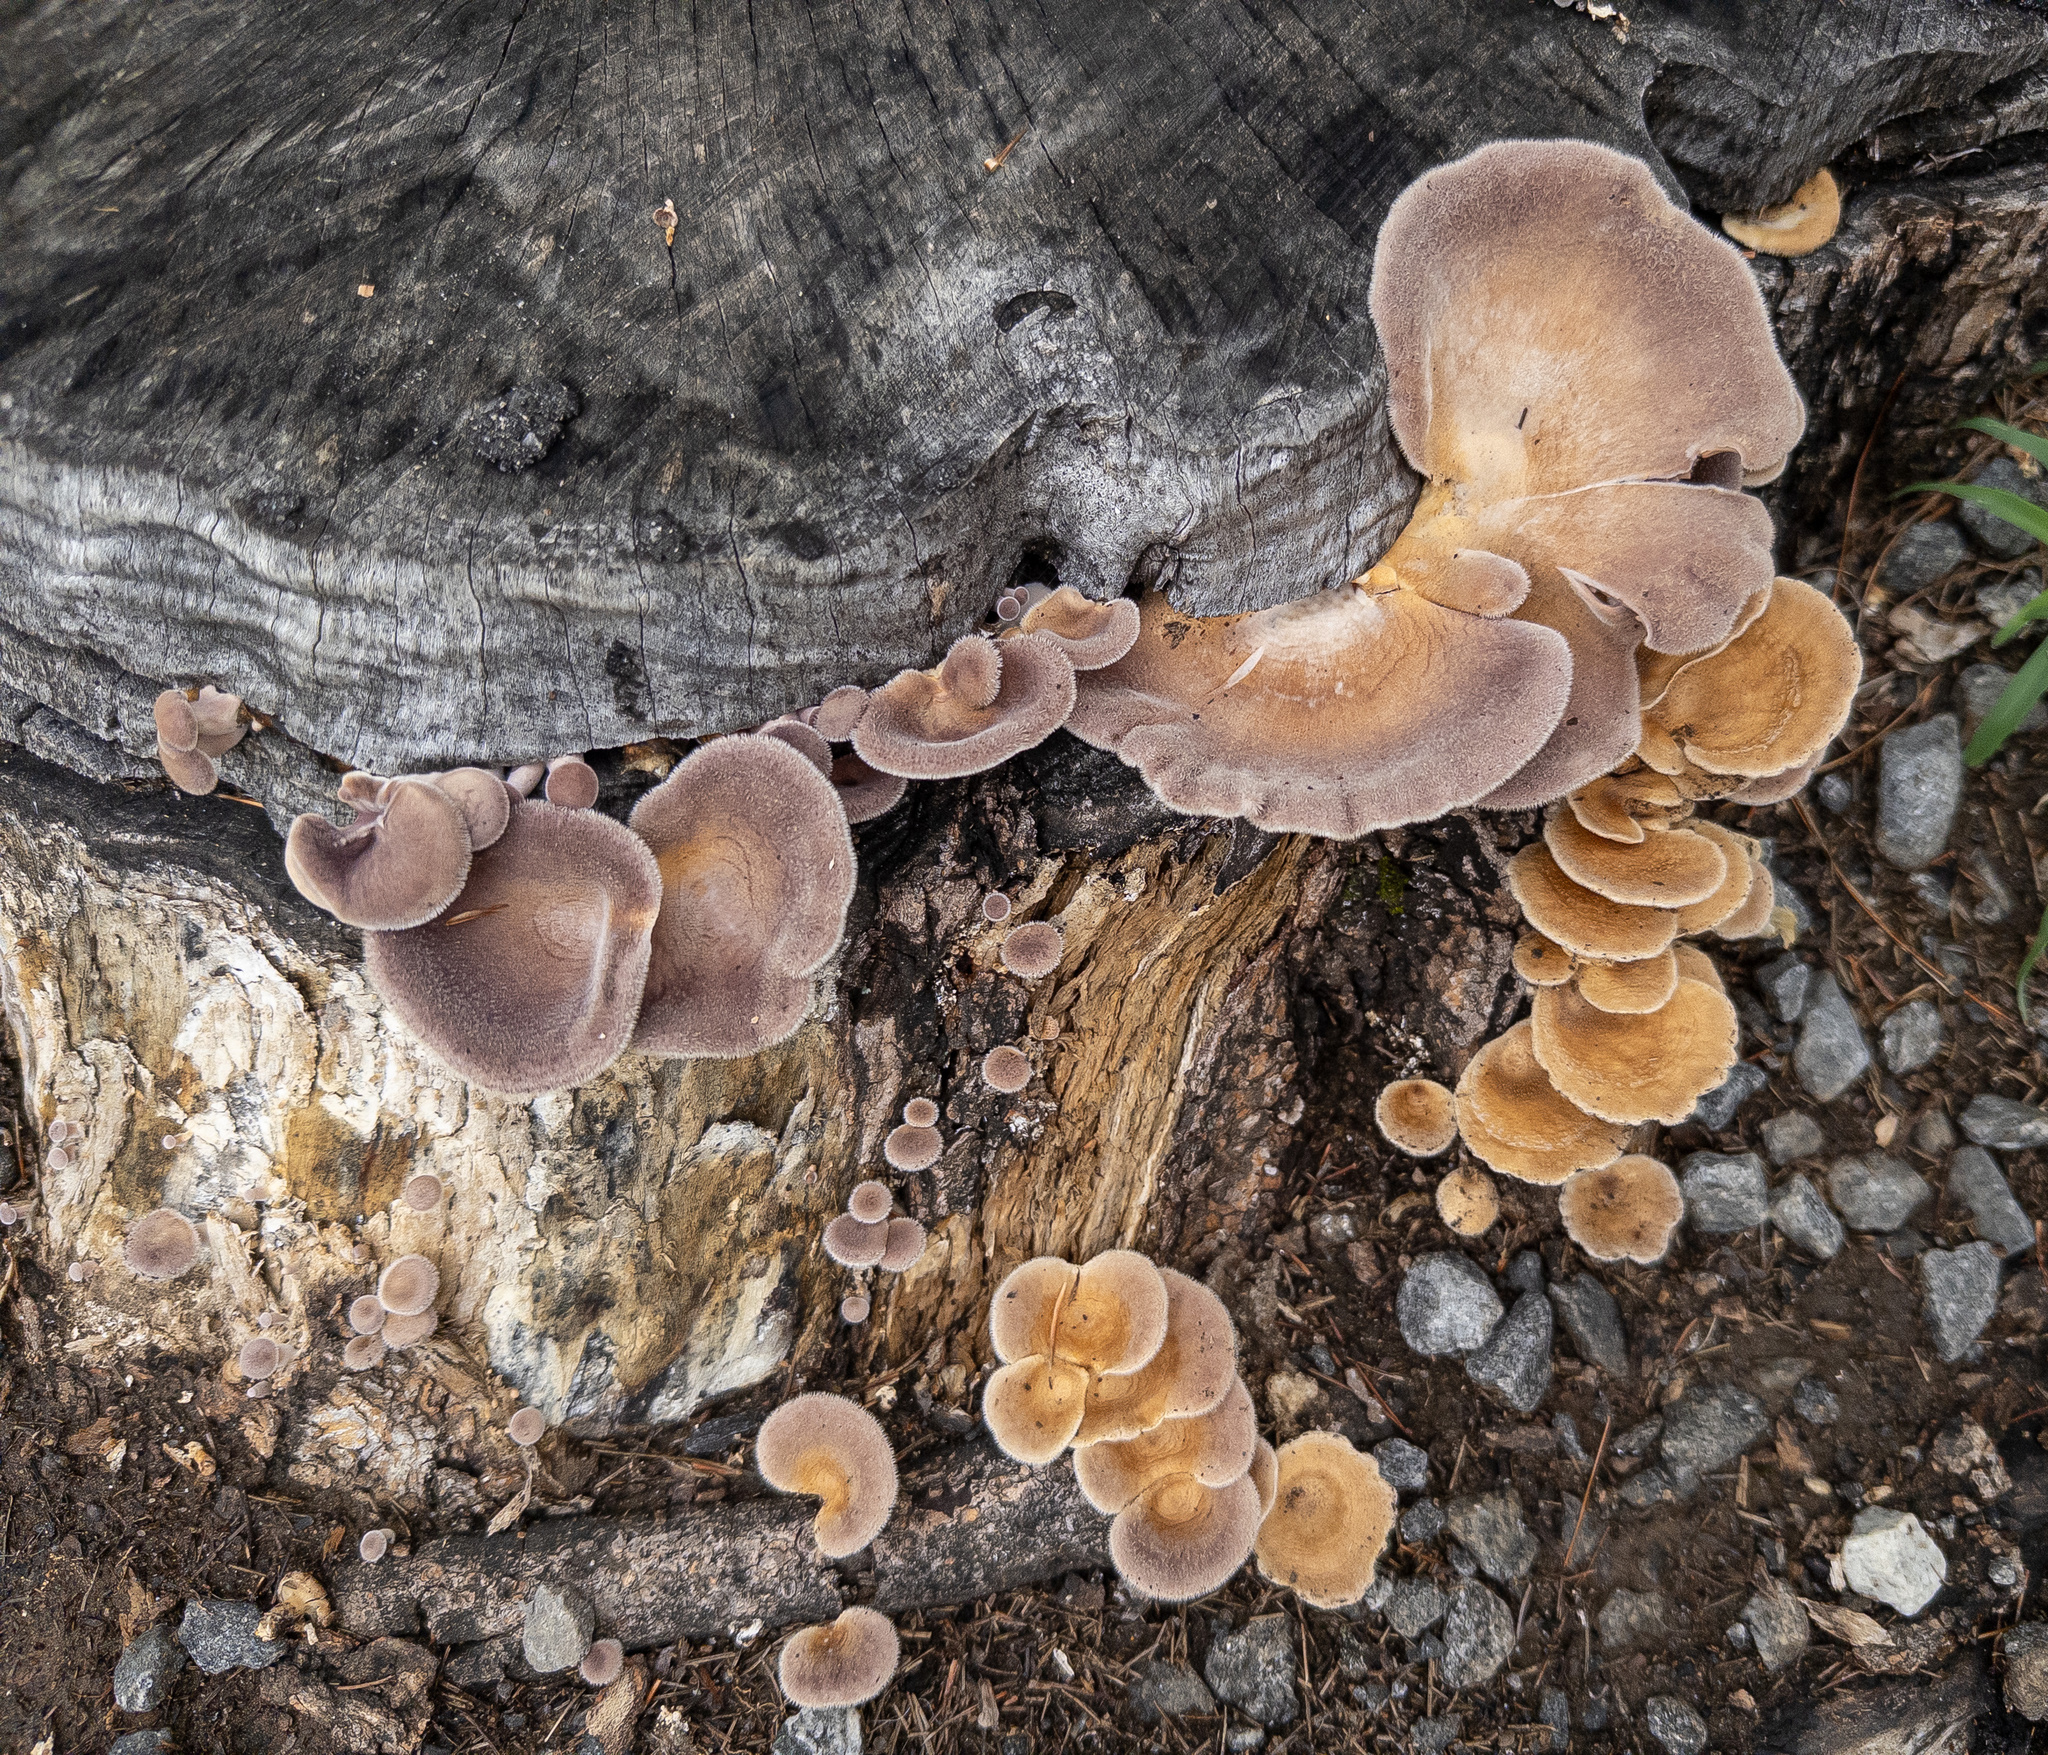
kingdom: Fungi
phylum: Basidiomycota
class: Agaricomycetes
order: Polyporales
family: Panaceae
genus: Panus
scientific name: Panus neostrigosus
